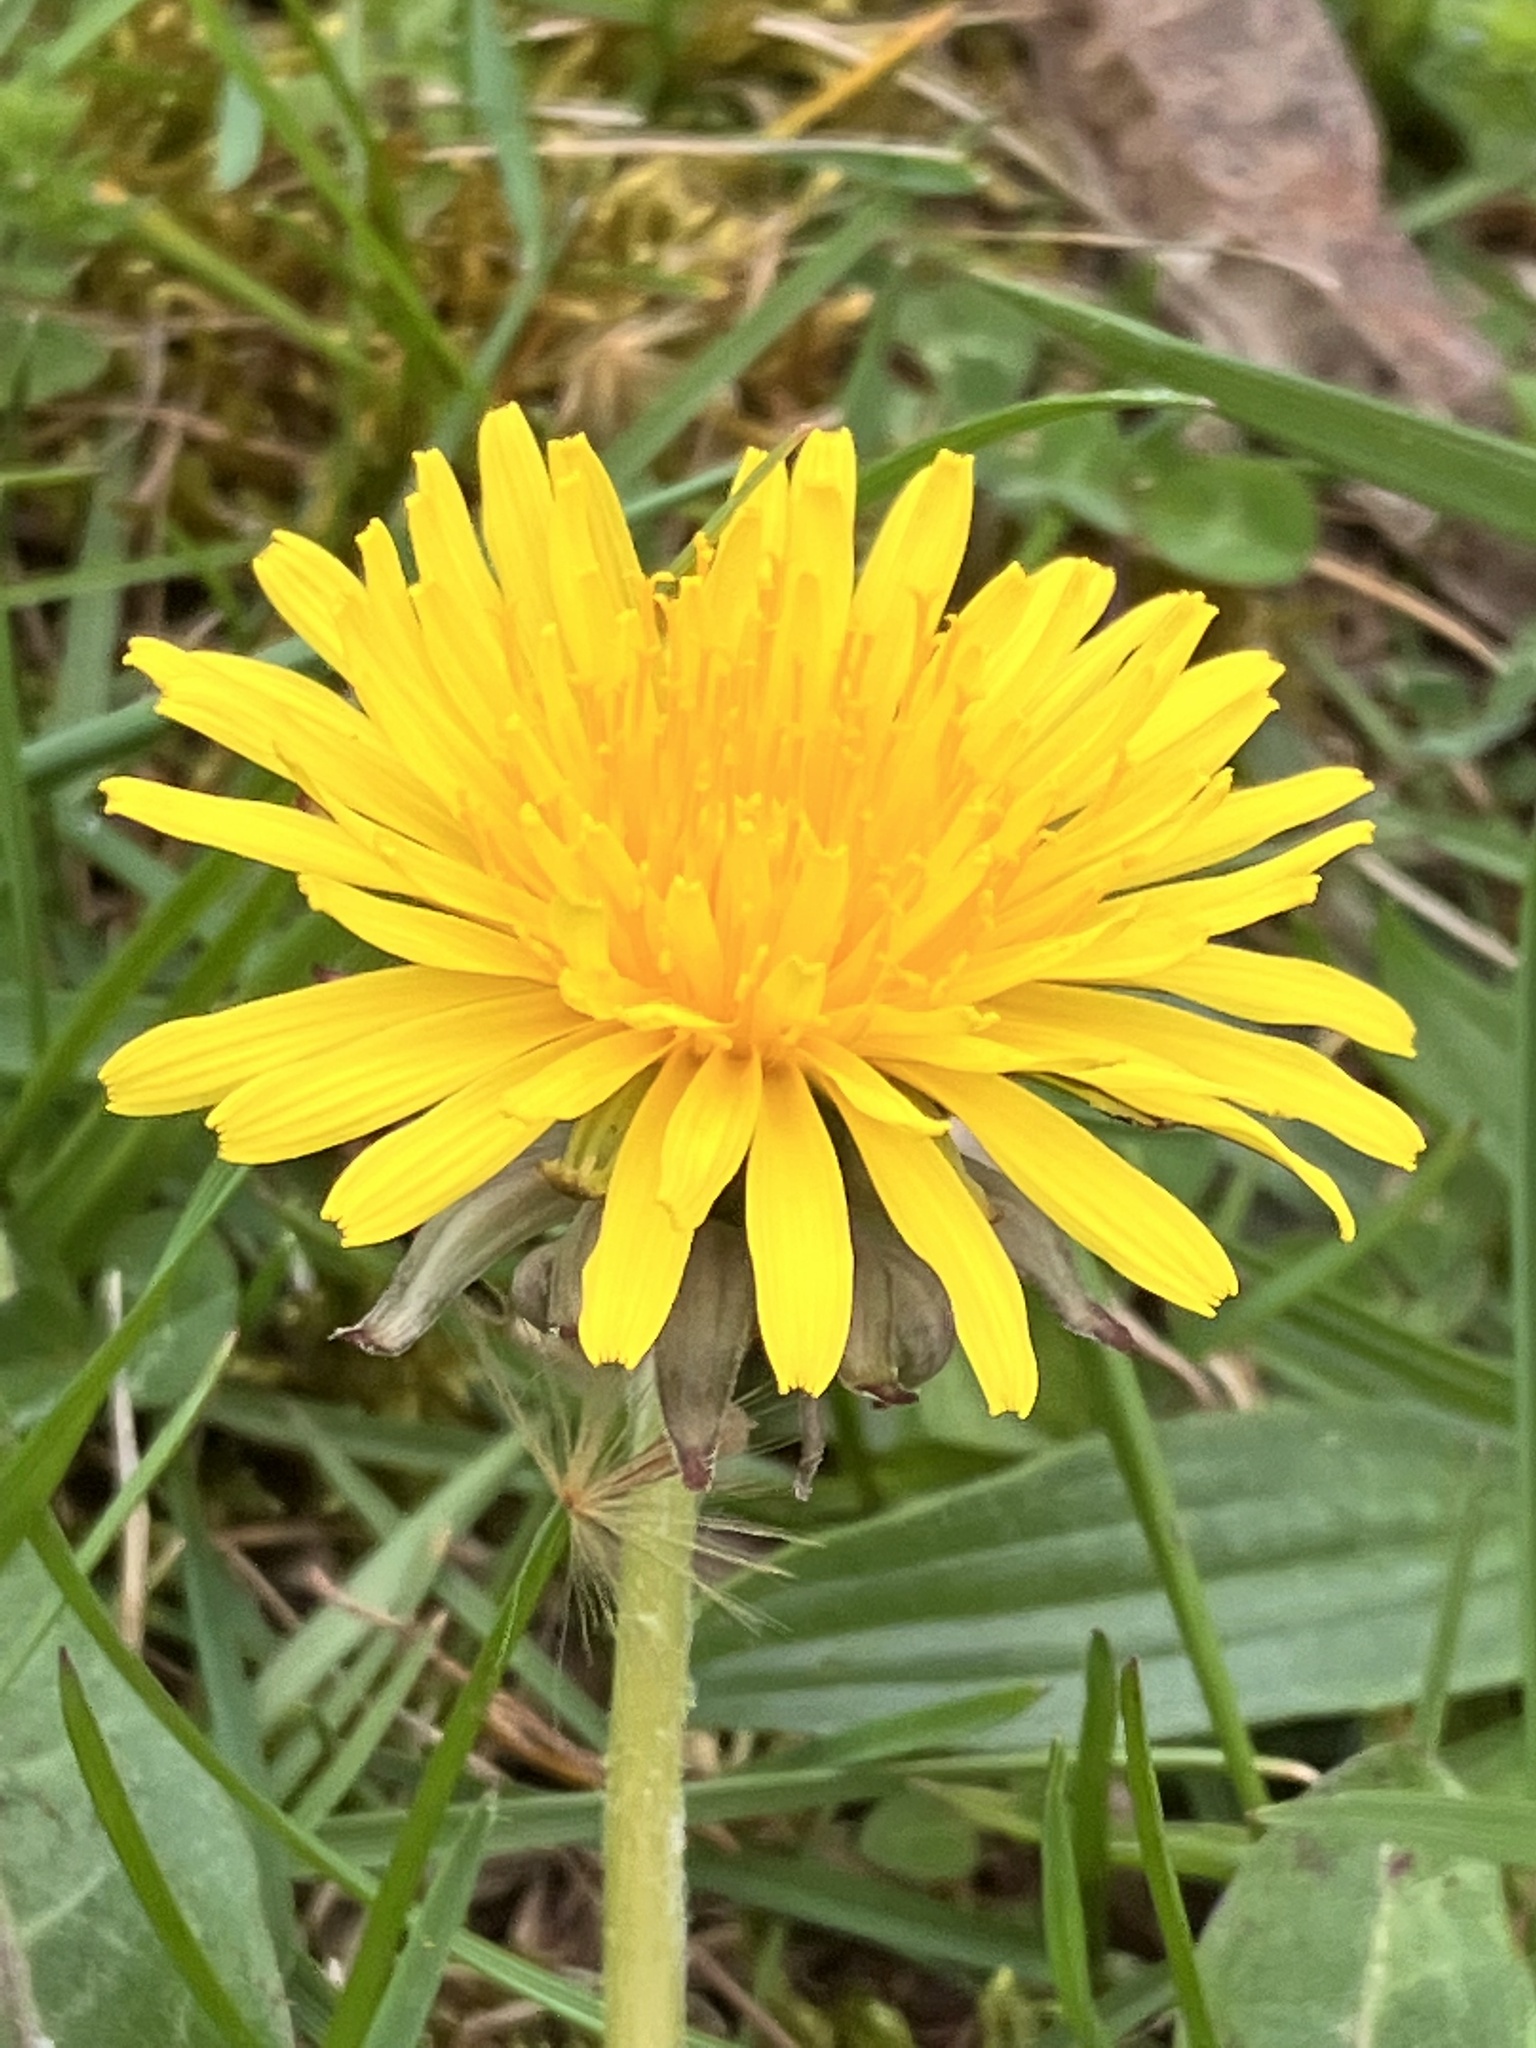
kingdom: Plantae
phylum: Tracheophyta
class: Magnoliopsida
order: Asterales
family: Asteraceae
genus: Taraxacum
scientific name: Taraxacum
